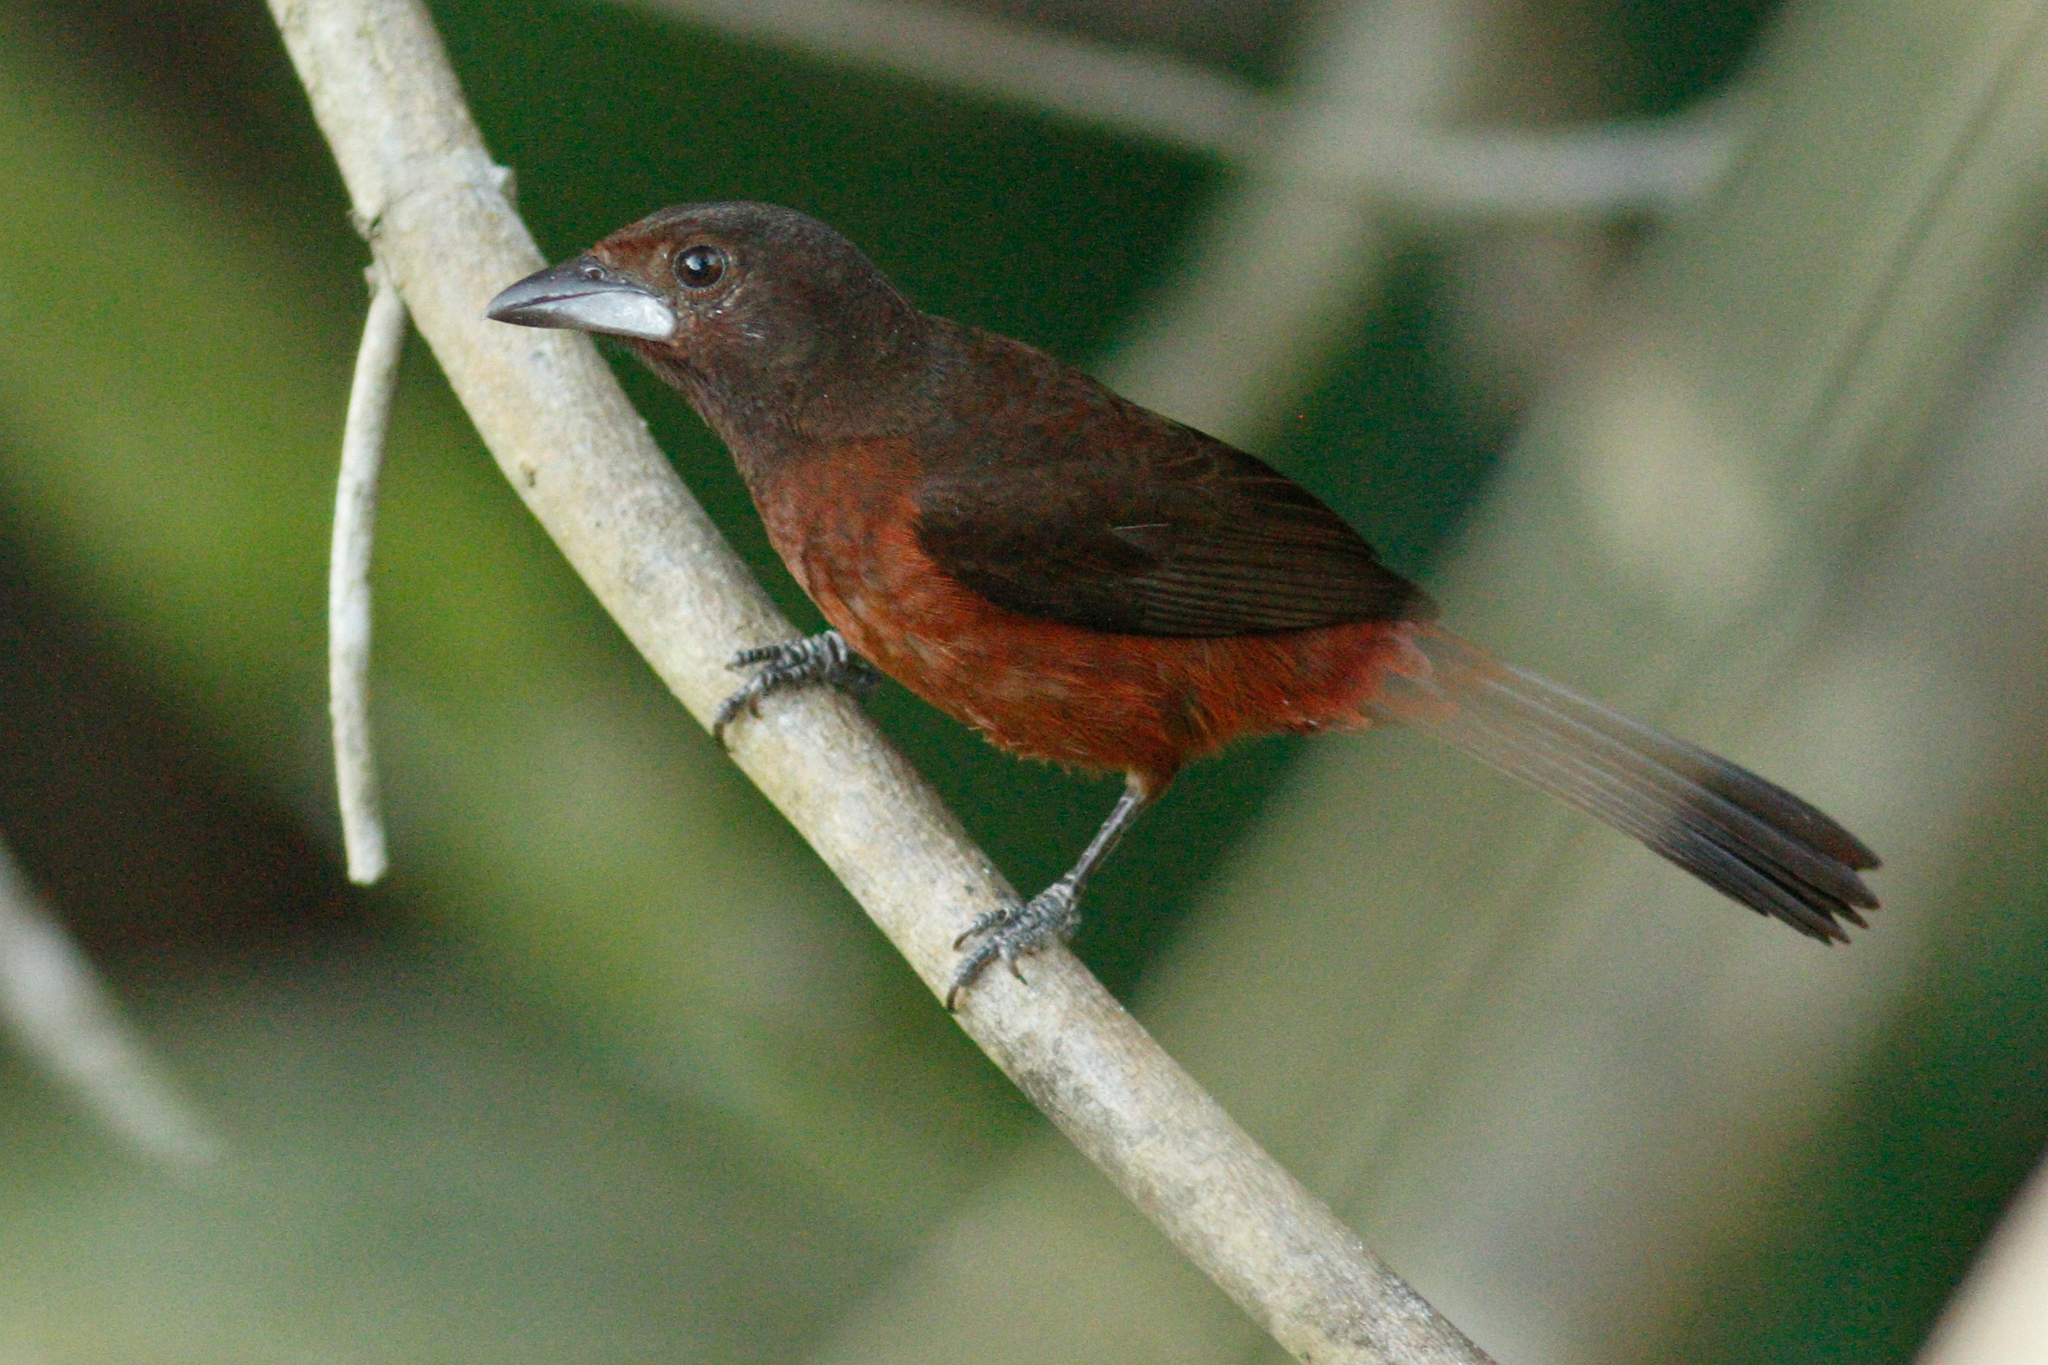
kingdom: Animalia
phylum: Chordata
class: Aves
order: Passeriformes
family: Thraupidae
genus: Ramphocelus
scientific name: Ramphocelus carbo
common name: Silver-beaked tanager
